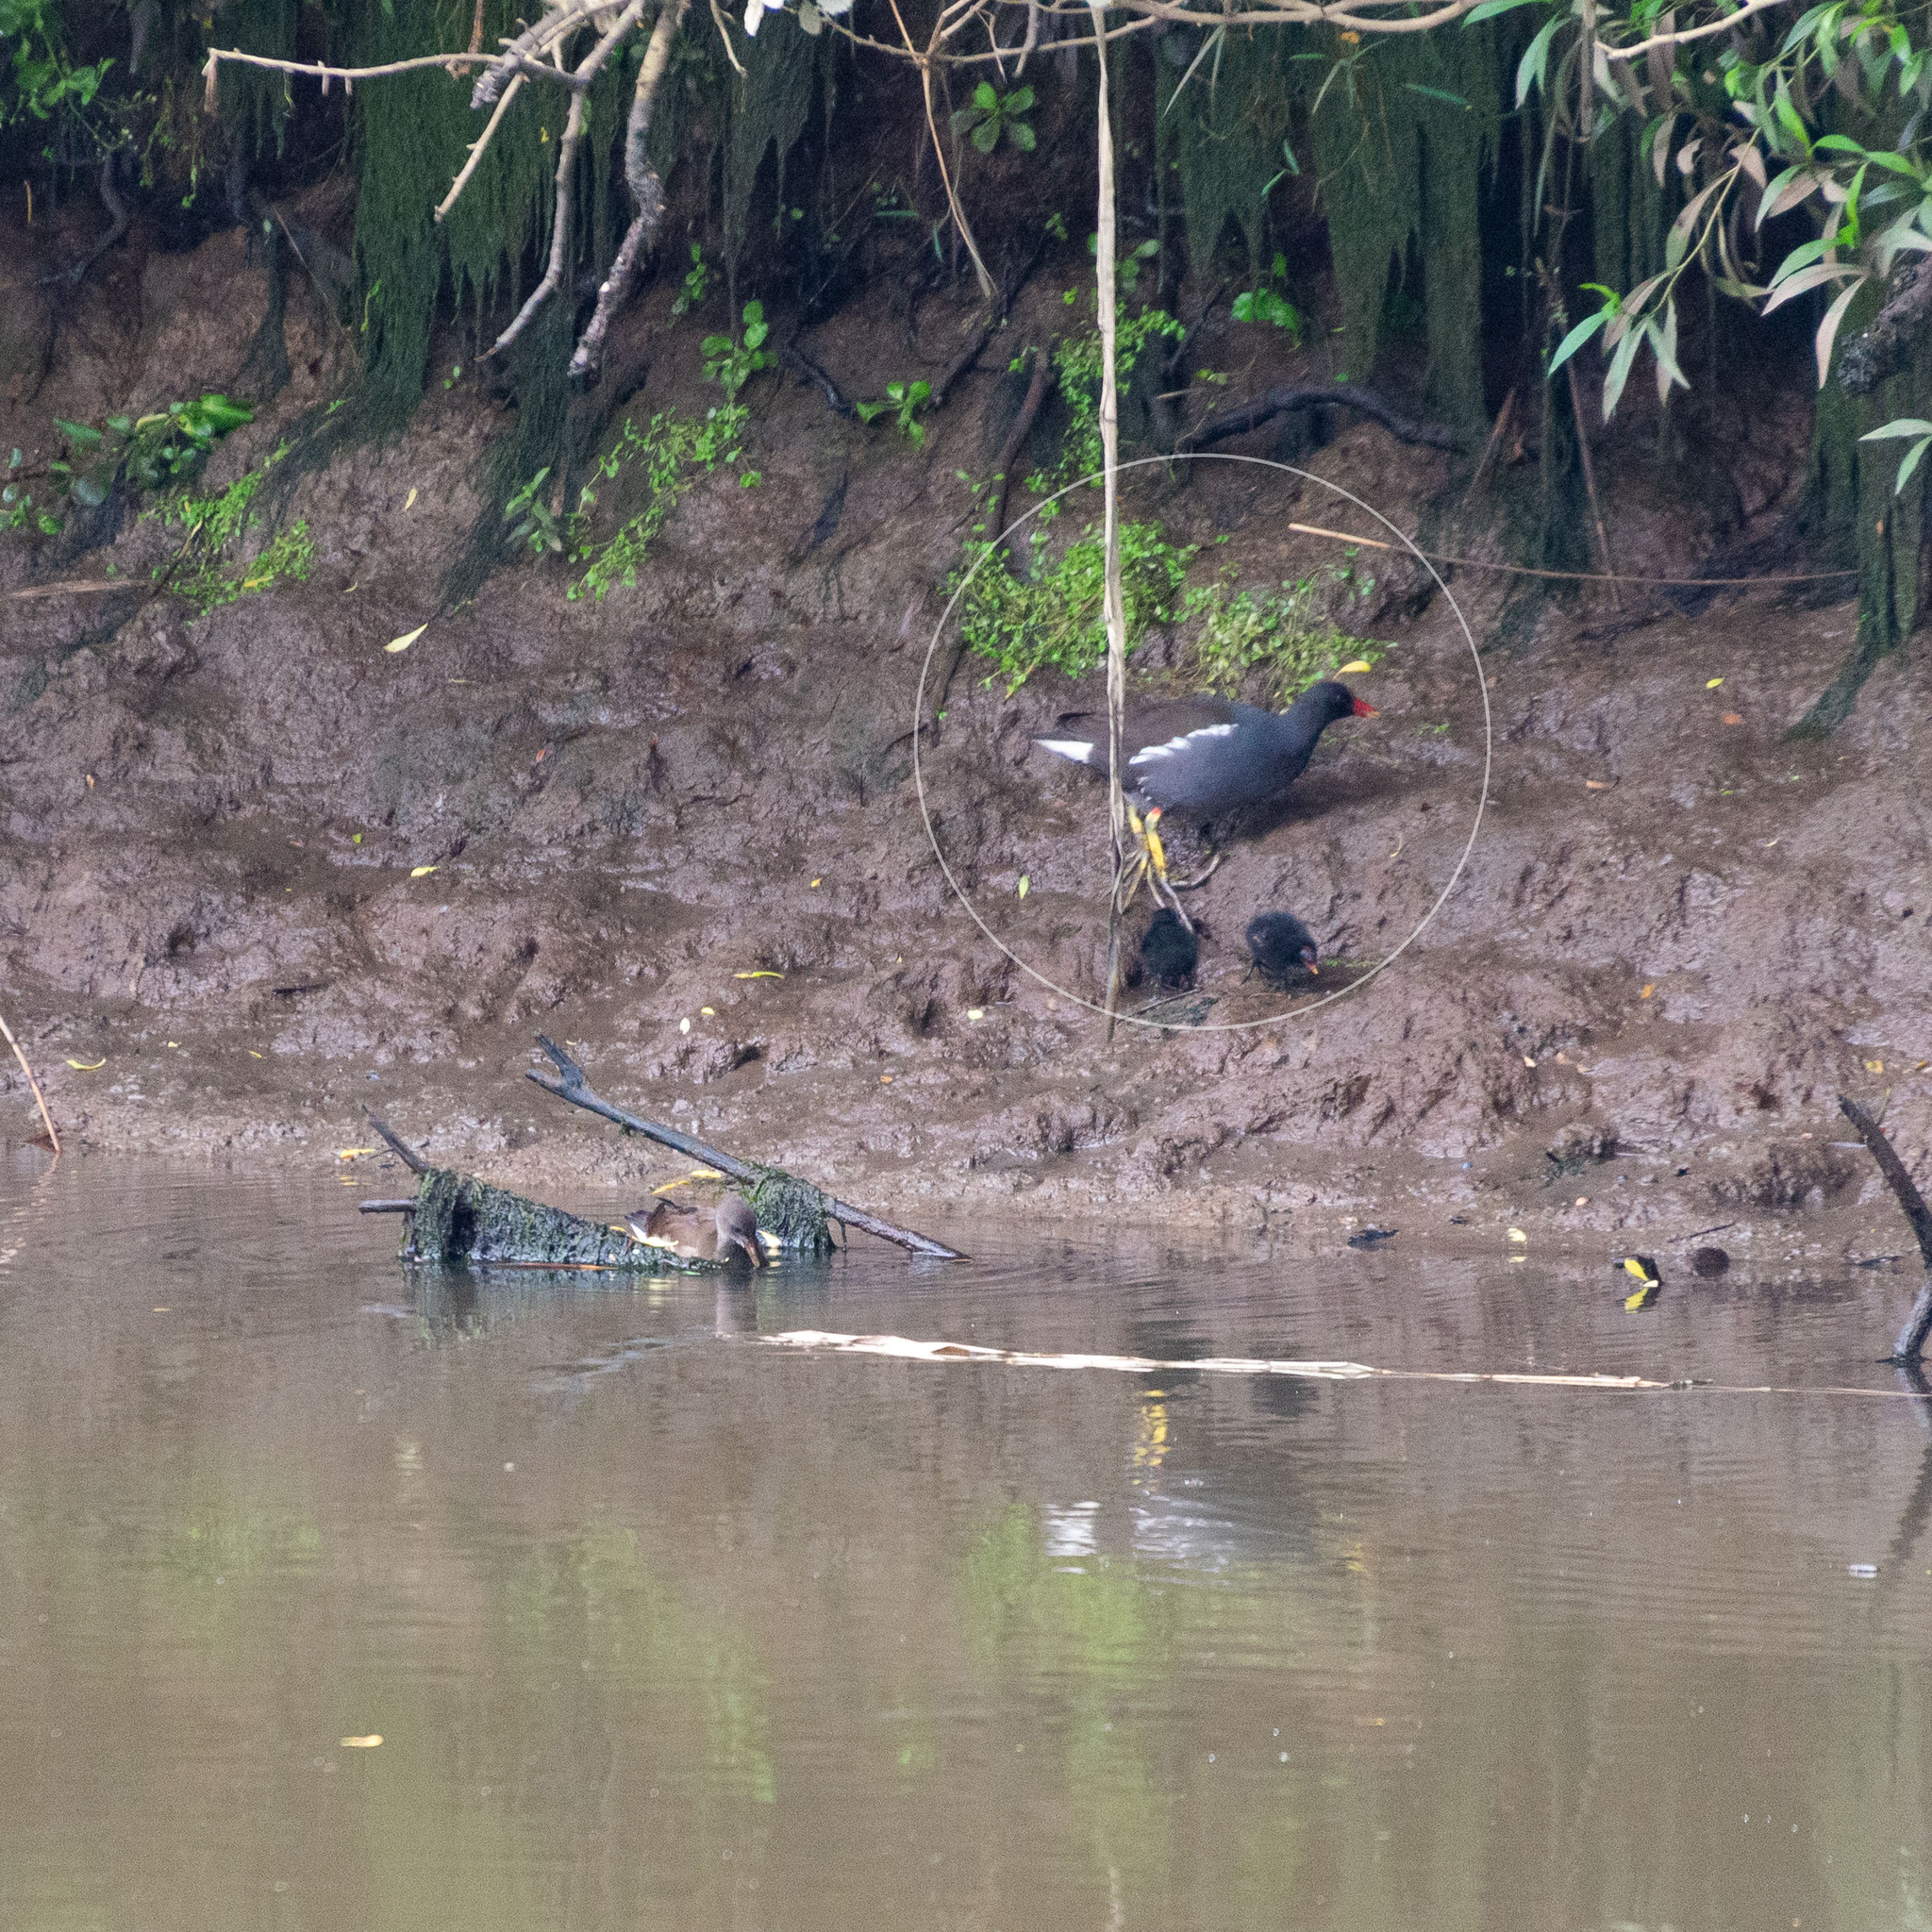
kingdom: Animalia
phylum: Chordata
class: Aves
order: Gruiformes
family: Rallidae
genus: Gallinula
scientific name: Gallinula chloropus
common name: Common moorhen
